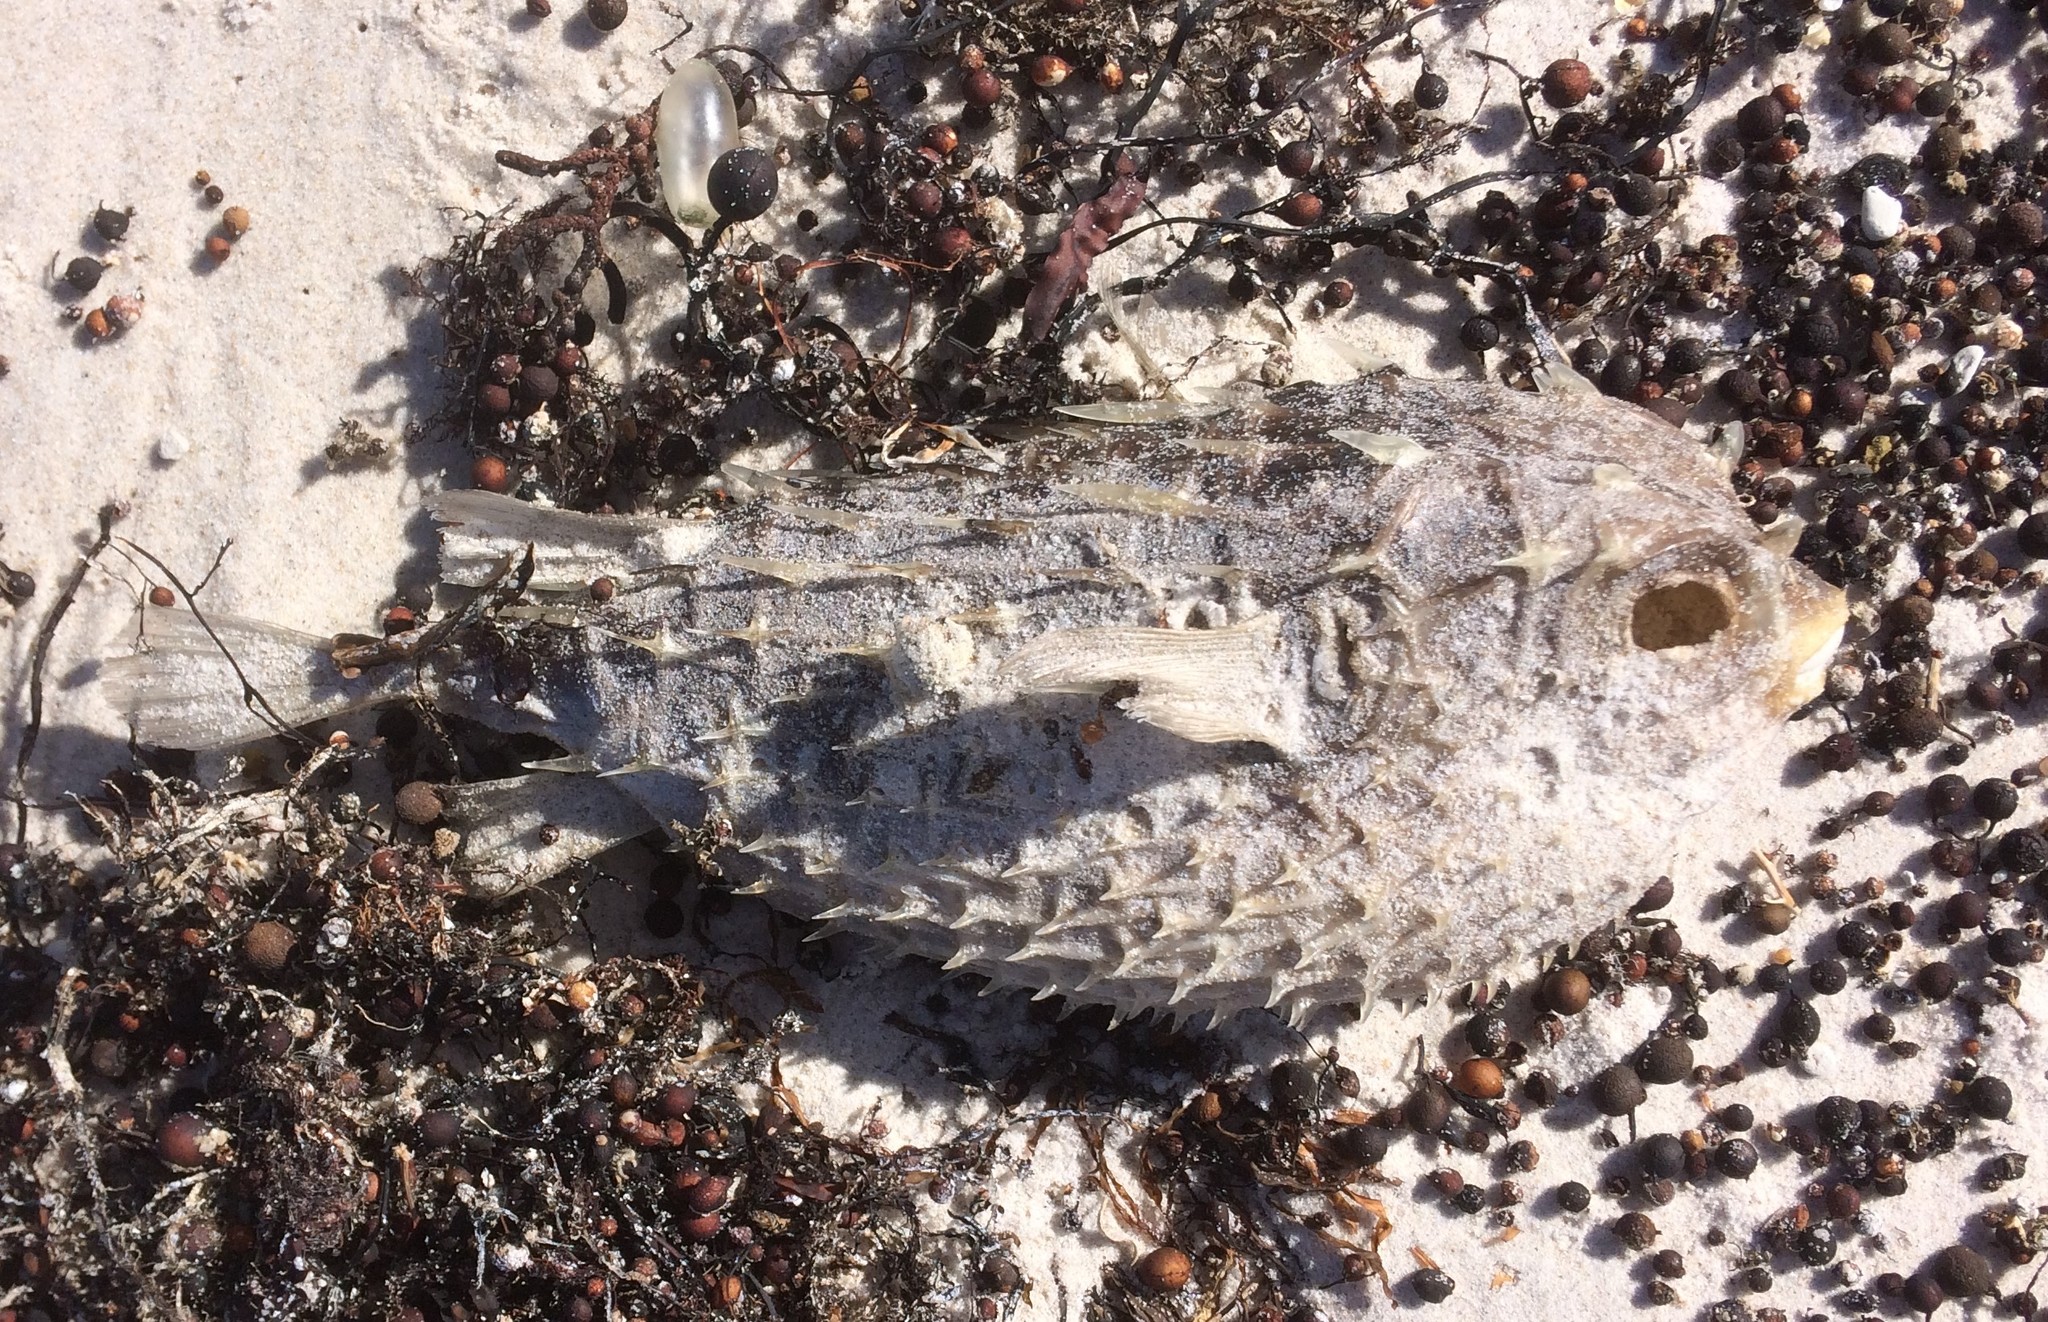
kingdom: Animalia
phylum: Chordata
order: Tetraodontiformes
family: Diodontidae
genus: Allomycterus
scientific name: Allomycterus pilatus
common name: No common name
